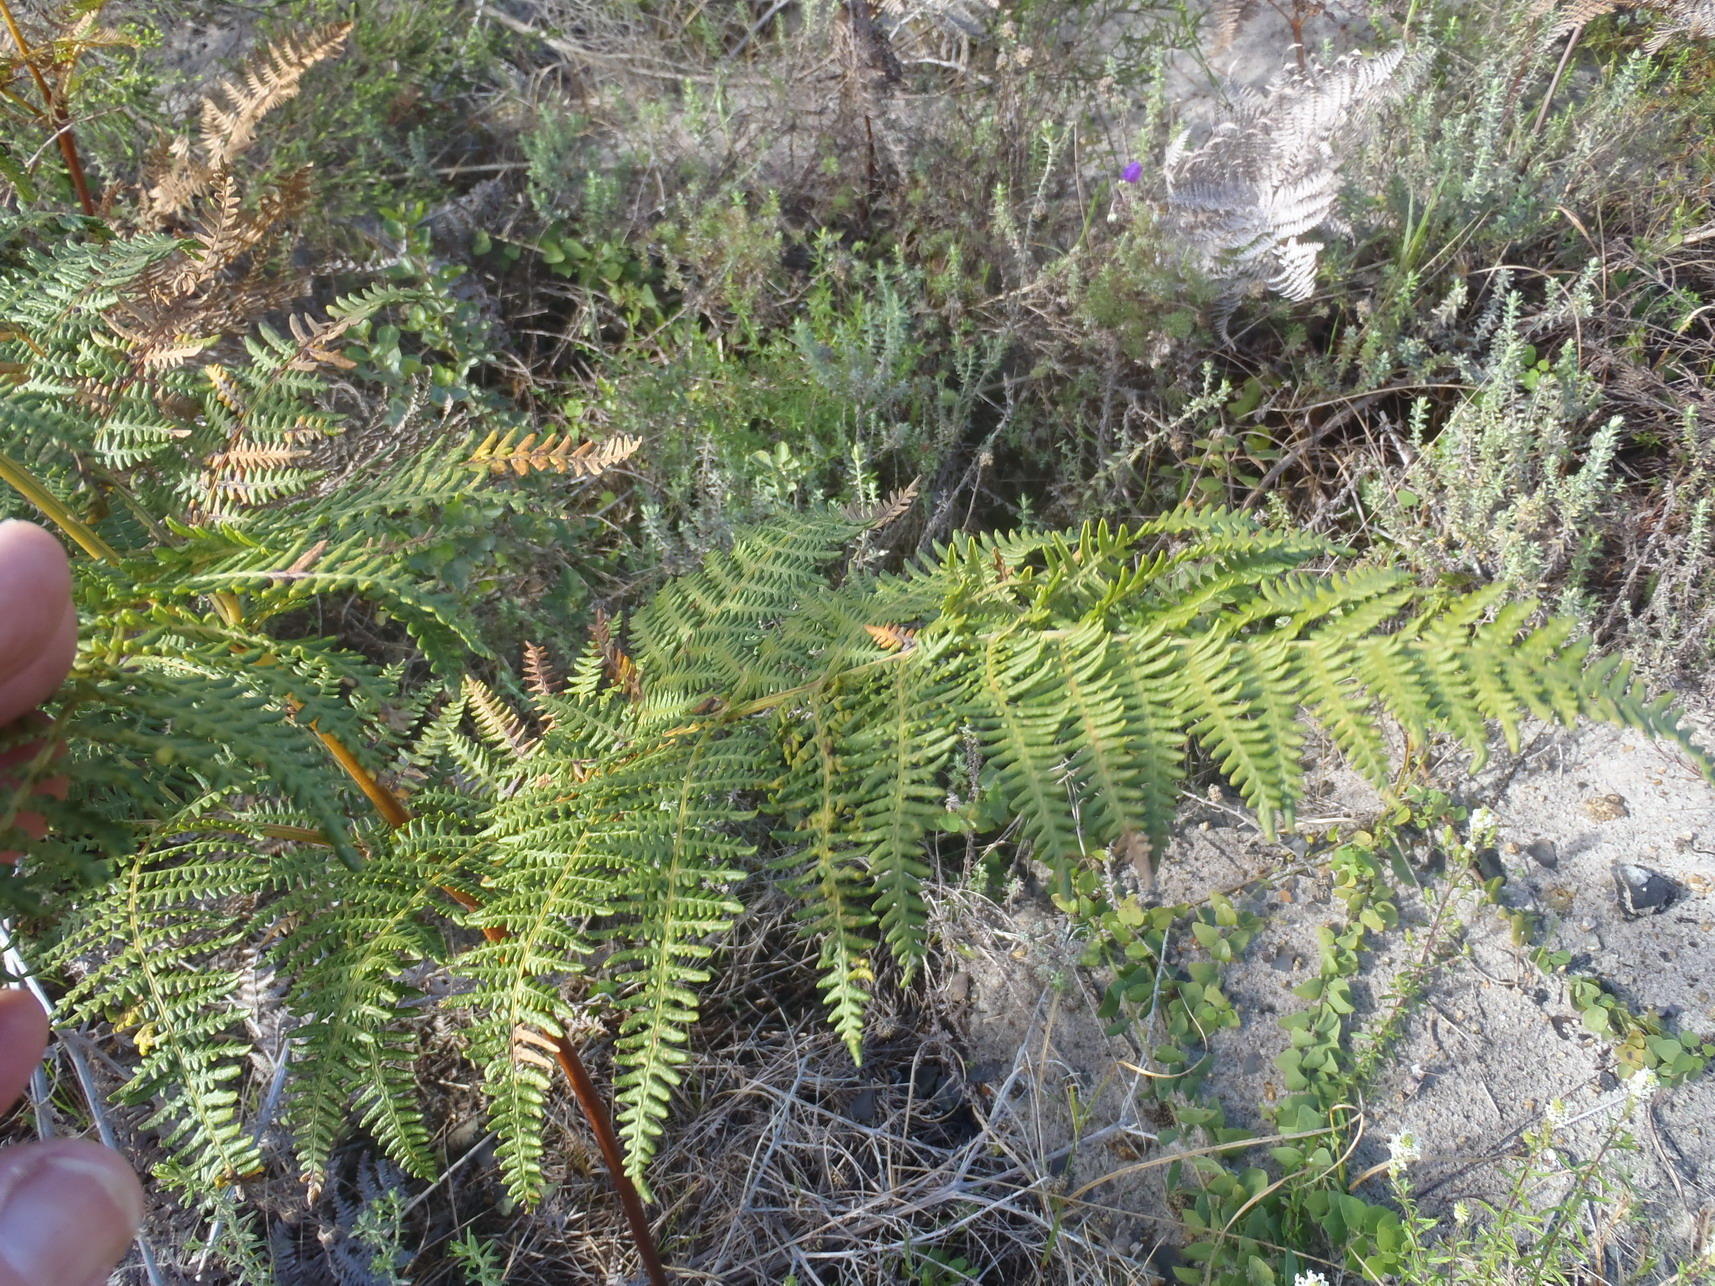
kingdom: Plantae
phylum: Tracheophyta
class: Polypodiopsida
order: Polypodiales
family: Dennstaedtiaceae
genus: Pteridium
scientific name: Pteridium aquilinum
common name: Bracken
